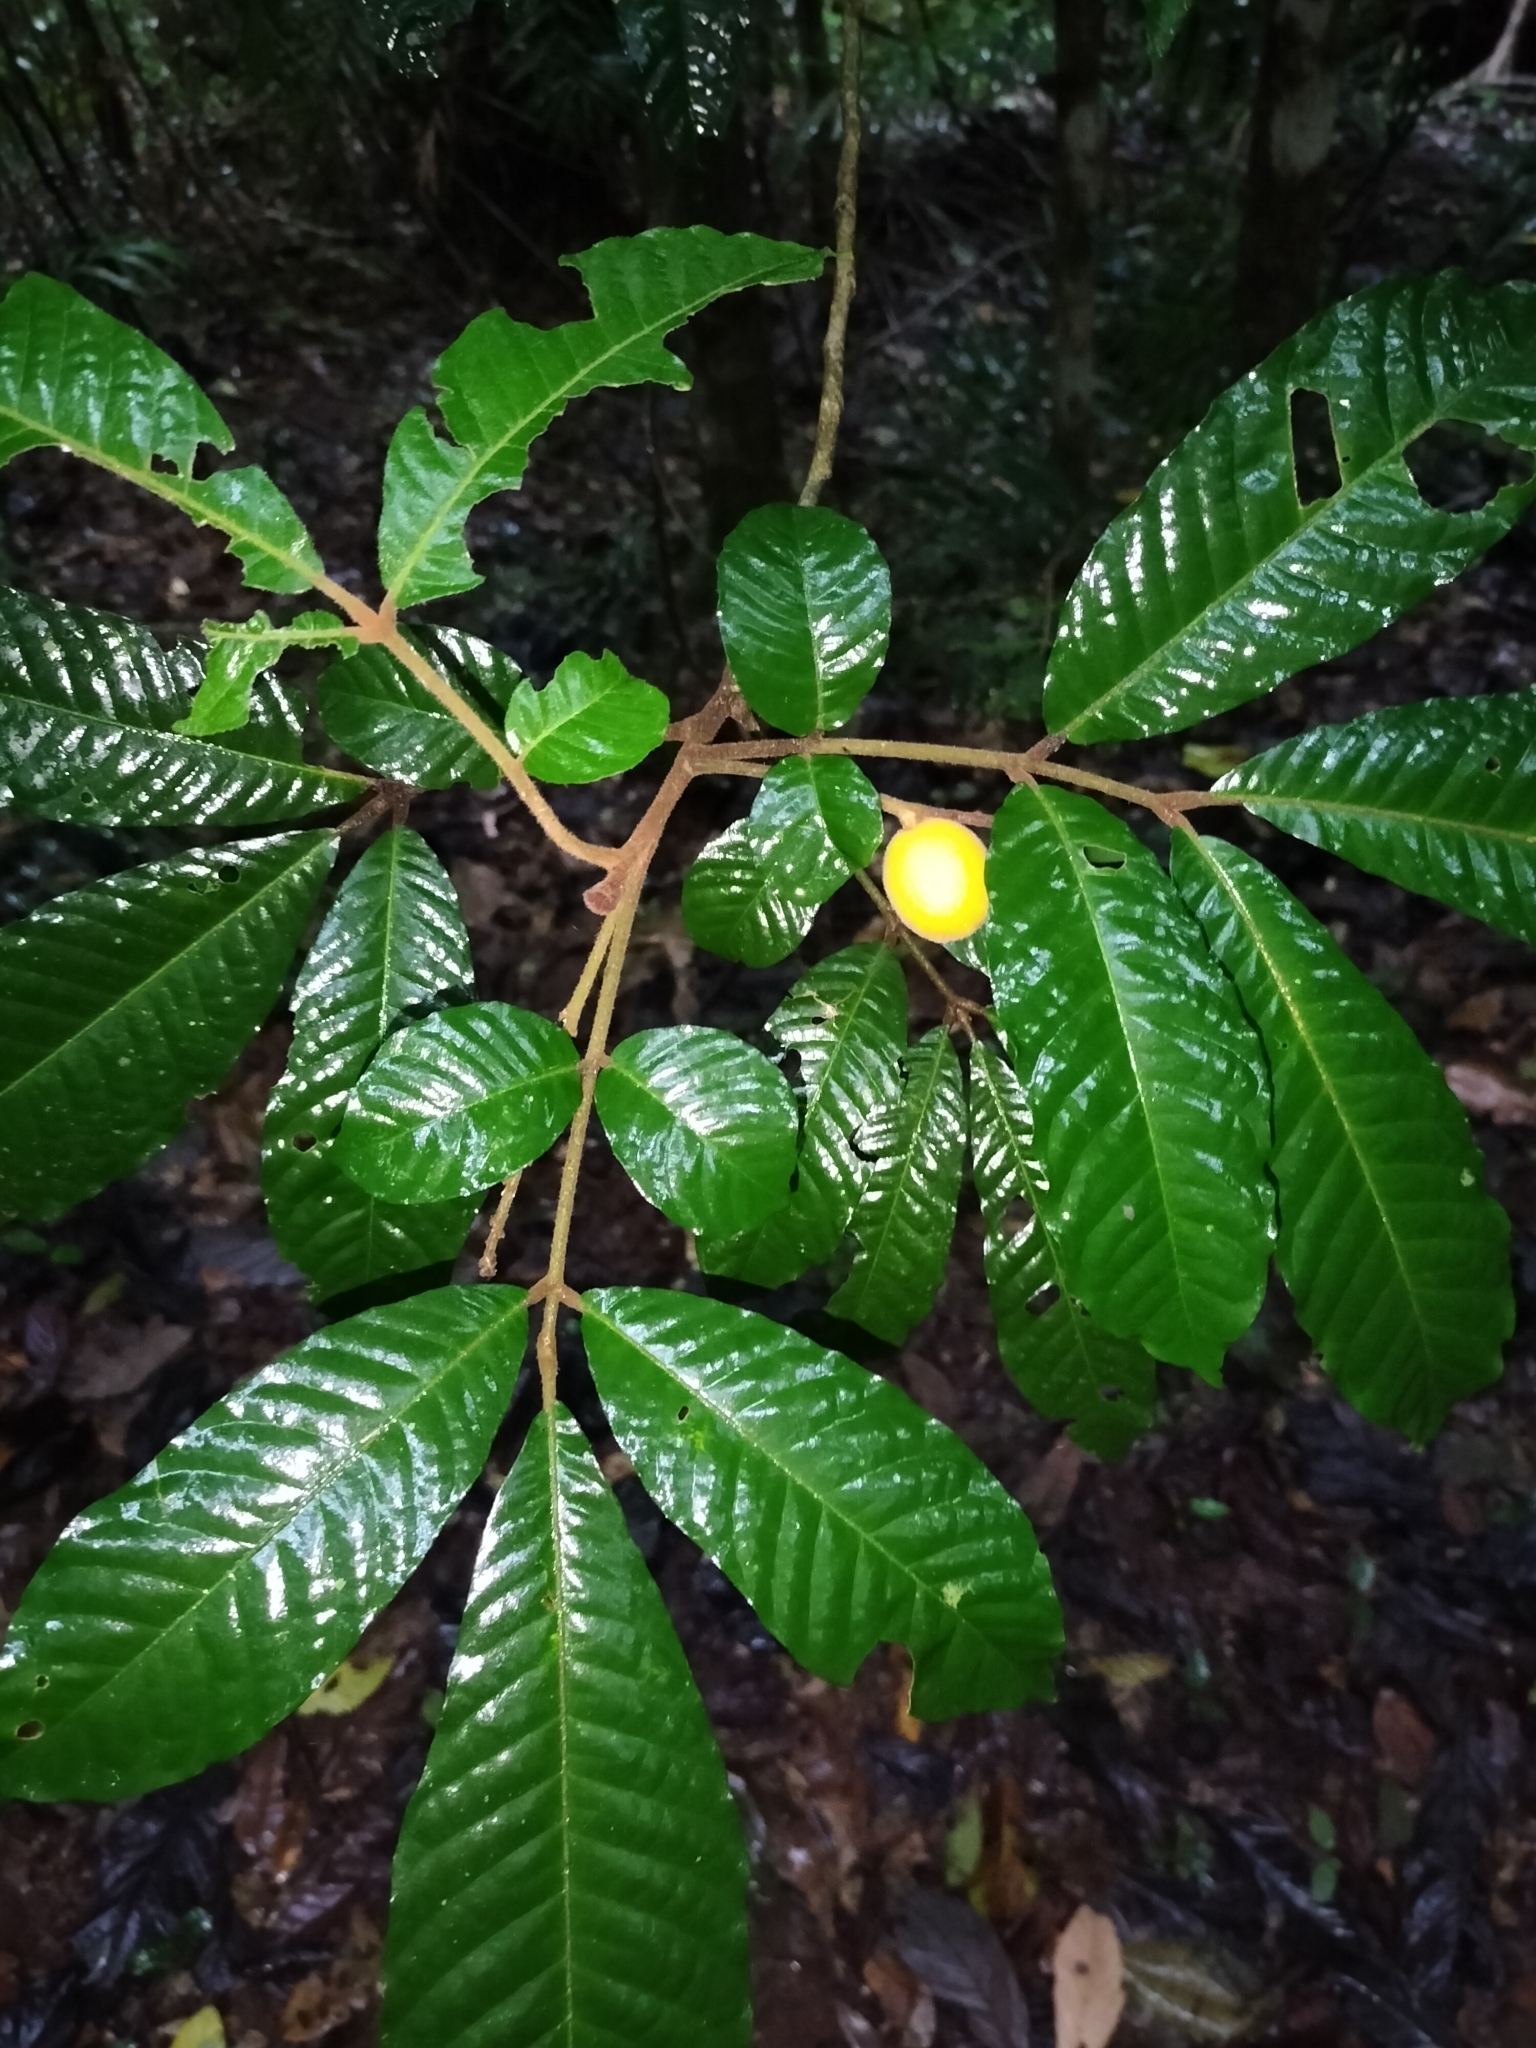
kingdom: Plantae
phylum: Tracheophyta
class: Magnoliopsida
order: Sapindales
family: Meliaceae
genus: Aglaia
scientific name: Aglaia tomentosa
